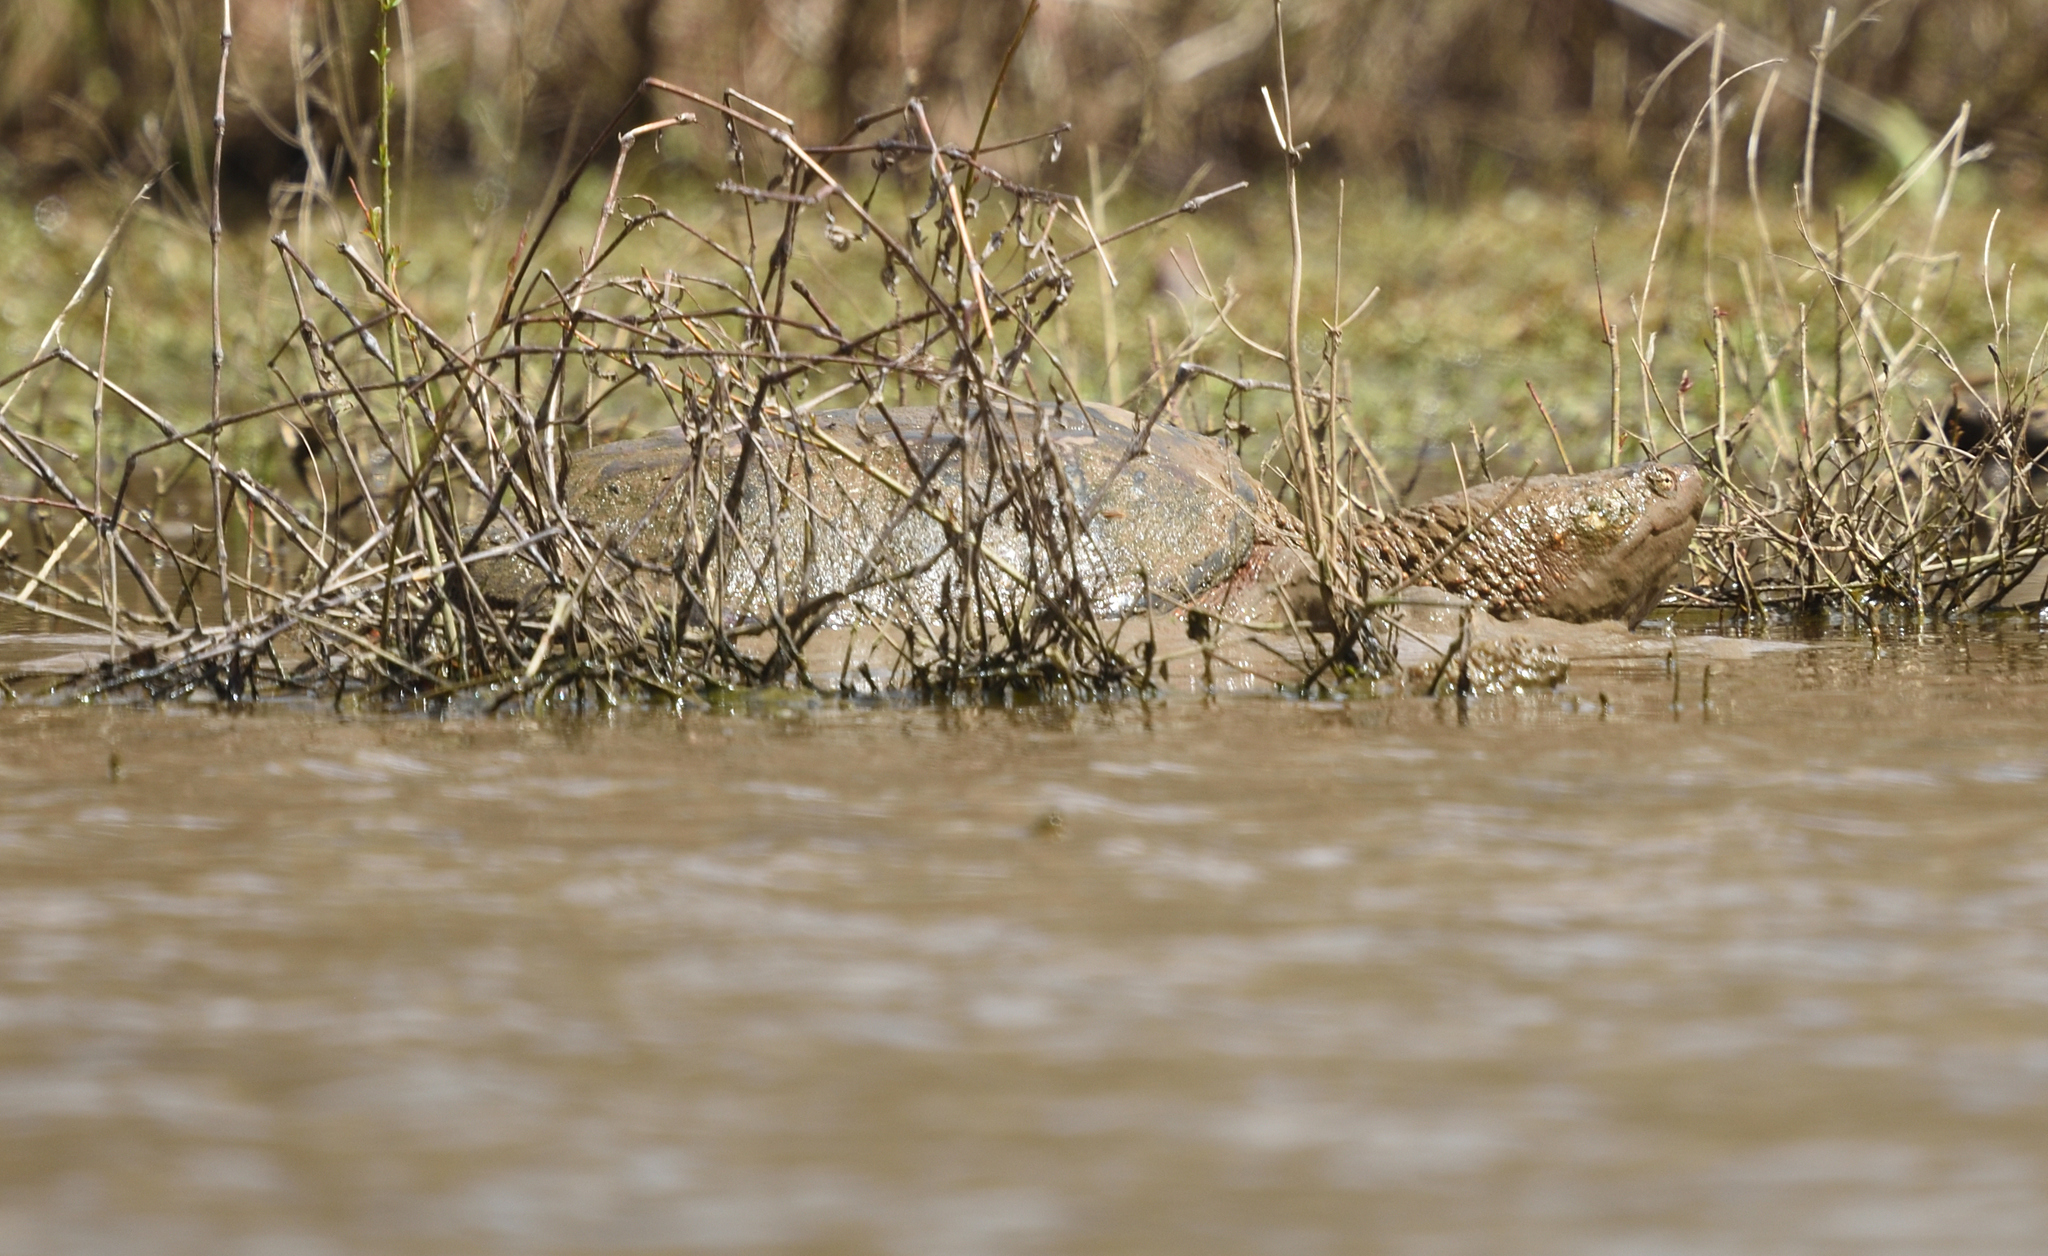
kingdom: Animalia
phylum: Chordata
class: Testudines
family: Chelydridae
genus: Chelydra
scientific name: Chelydra serpentina
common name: Common snapping turtle
